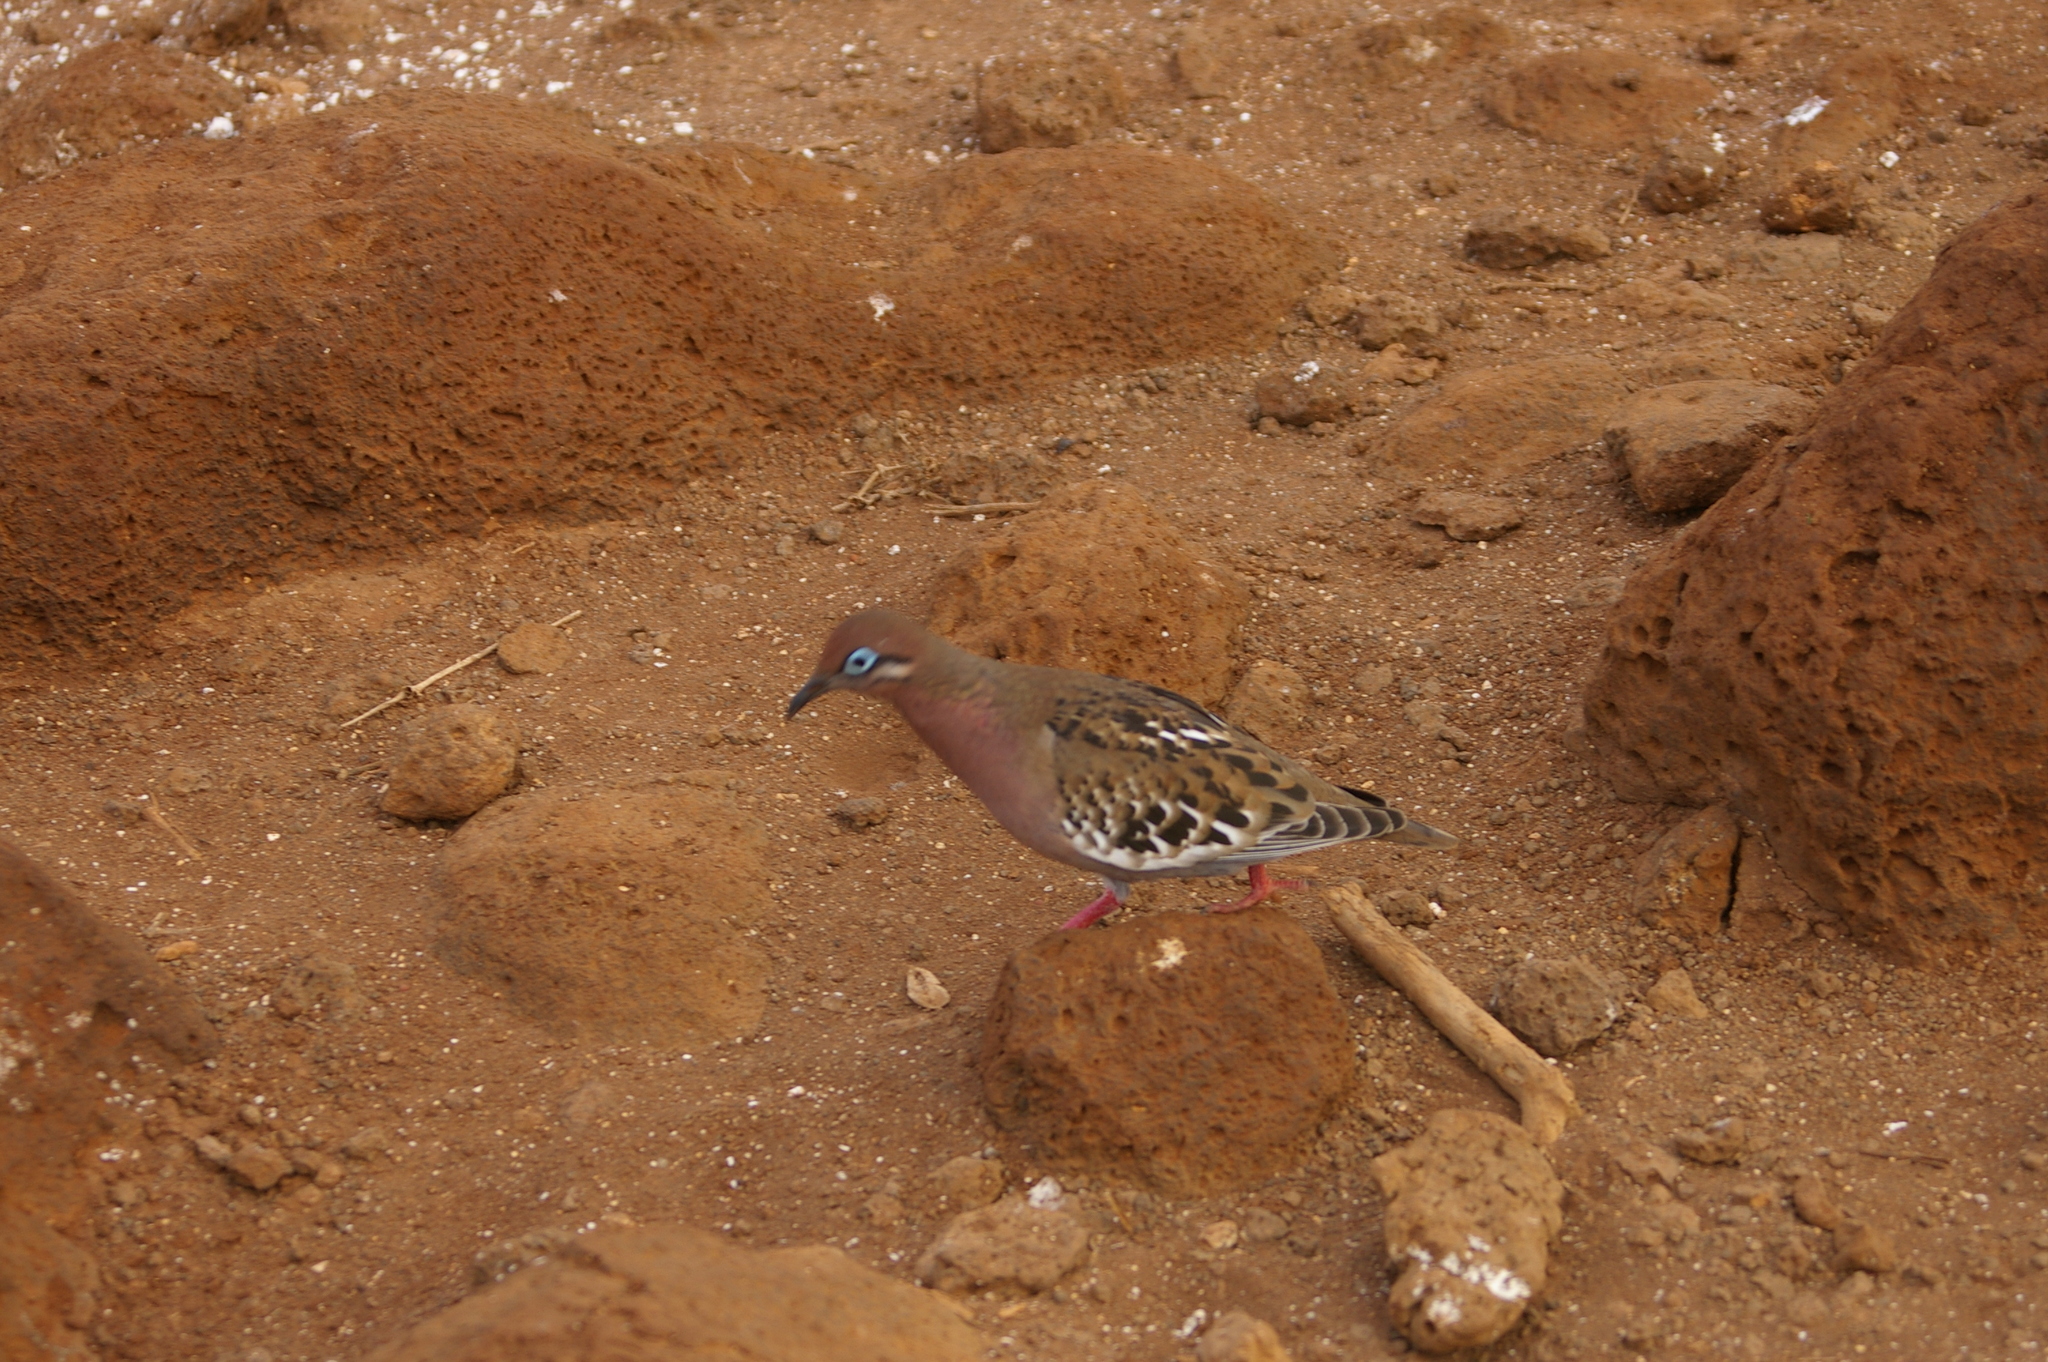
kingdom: Animalia
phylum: Chordata
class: Aves
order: Columbiformes
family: Columbidae
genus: Zenaida
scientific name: Zenaida galapagoensis
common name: Galapagos dove
